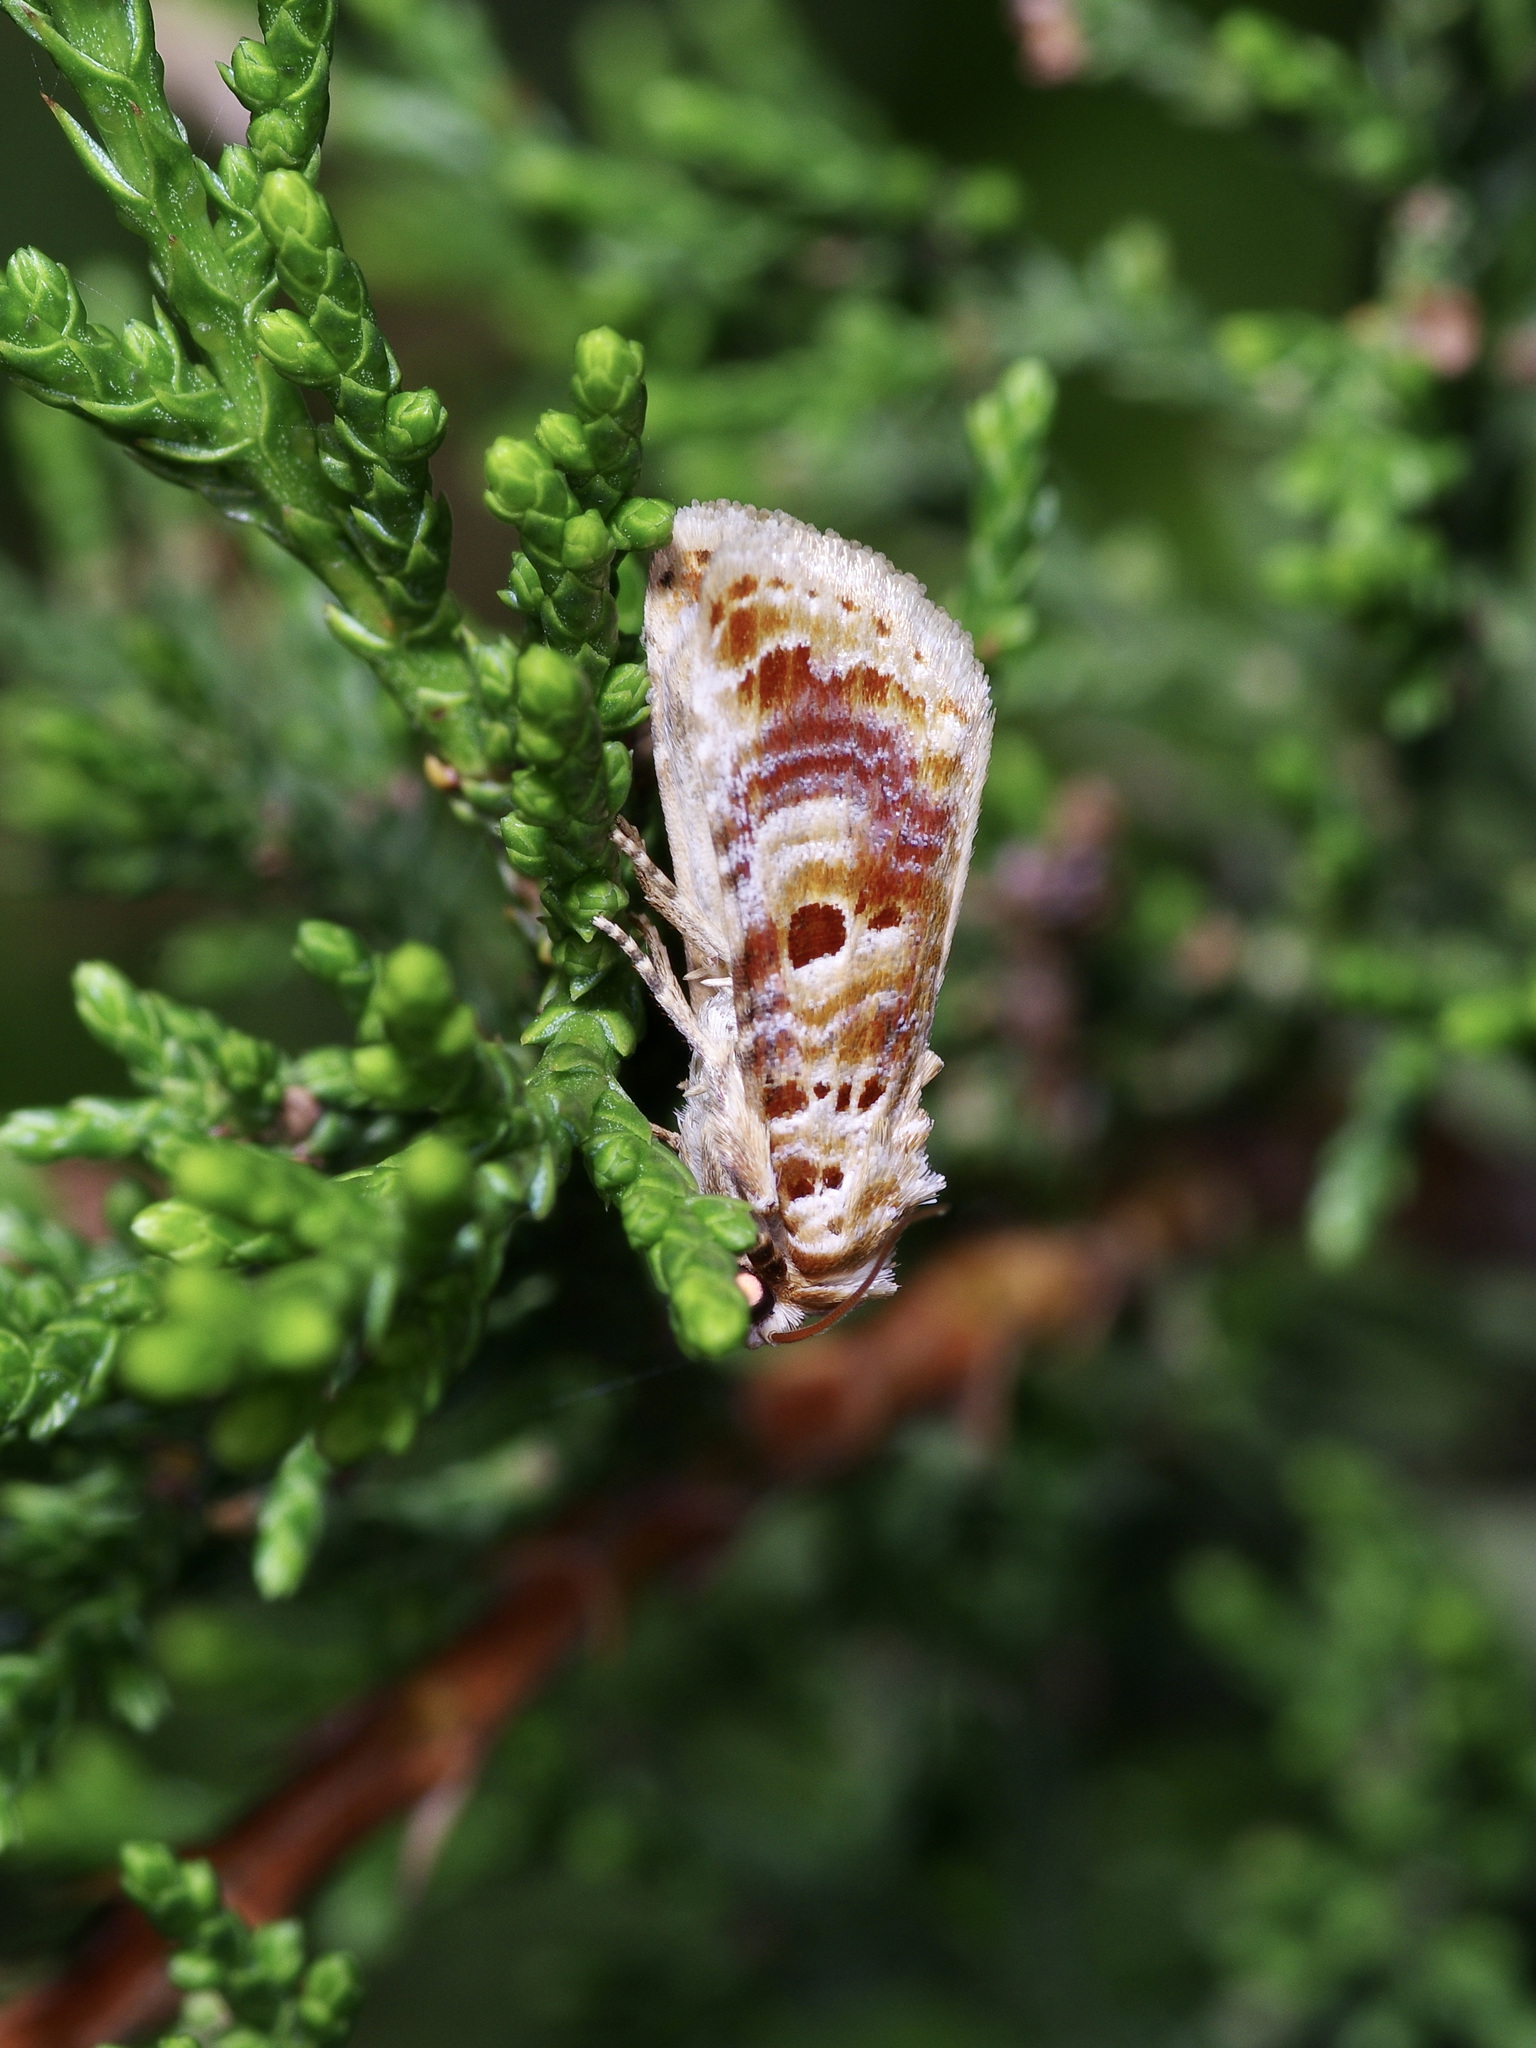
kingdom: Animalia
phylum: Arthropoda
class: Insecta
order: Lepidoptera
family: Noctuidae
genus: Diastema
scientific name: Diastema tigris
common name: Lantana moth
